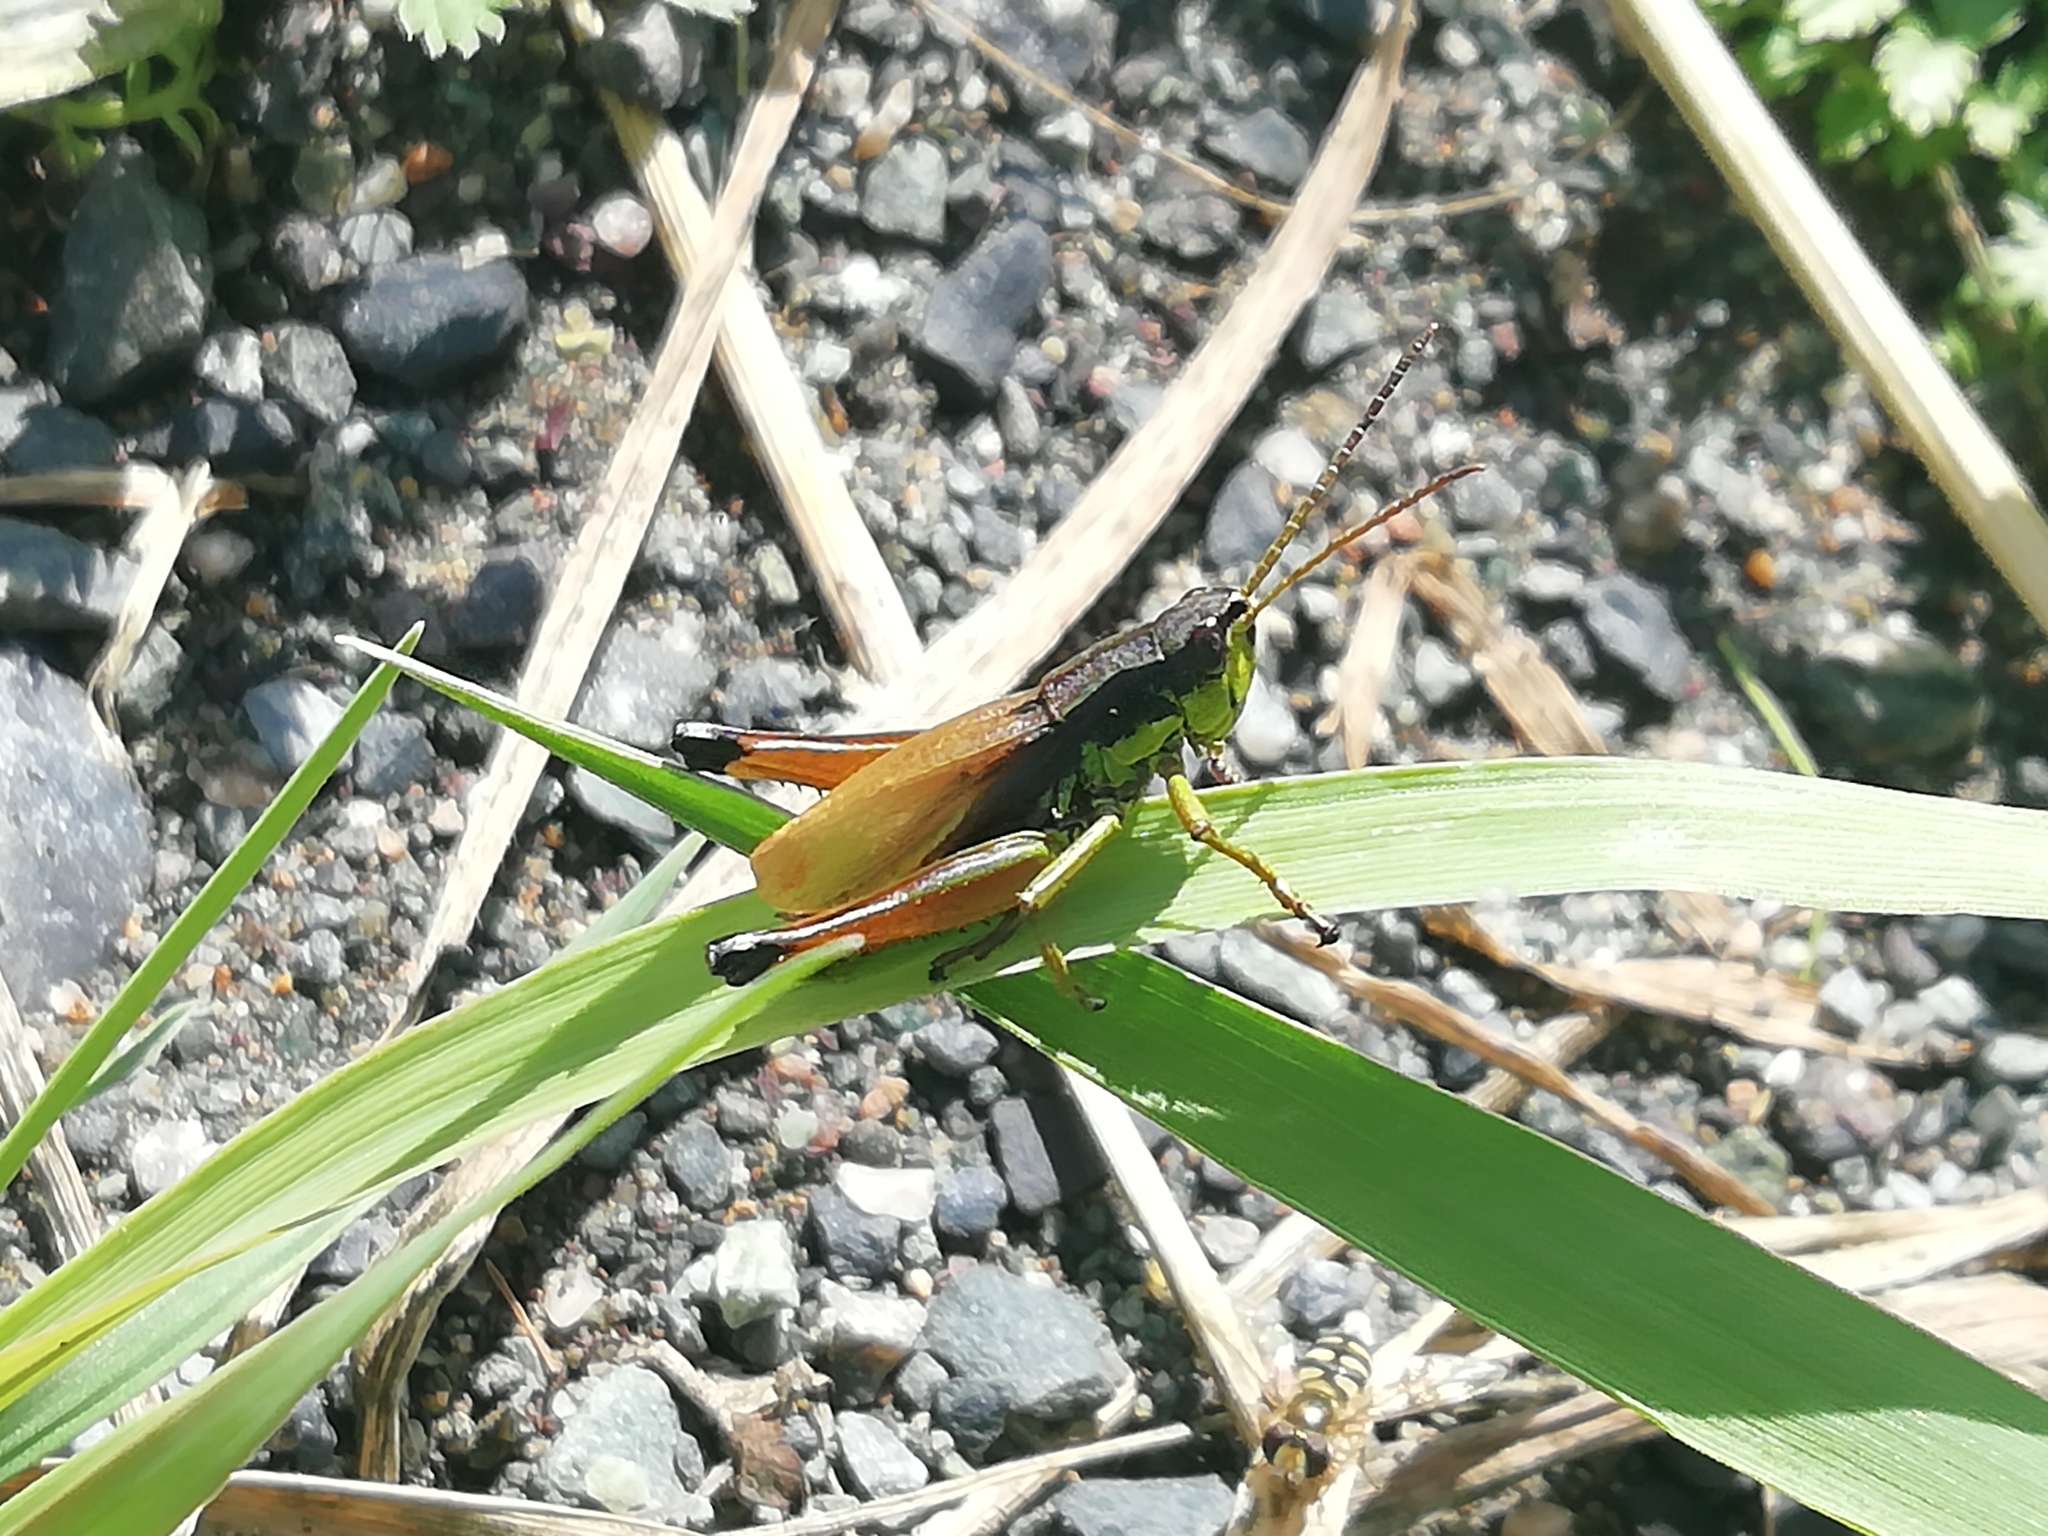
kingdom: Animalia
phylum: Arthropoda
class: Insecta
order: Orthoptera
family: Acrididae
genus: Podismopsis
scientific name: Podismopsis poppiusi
